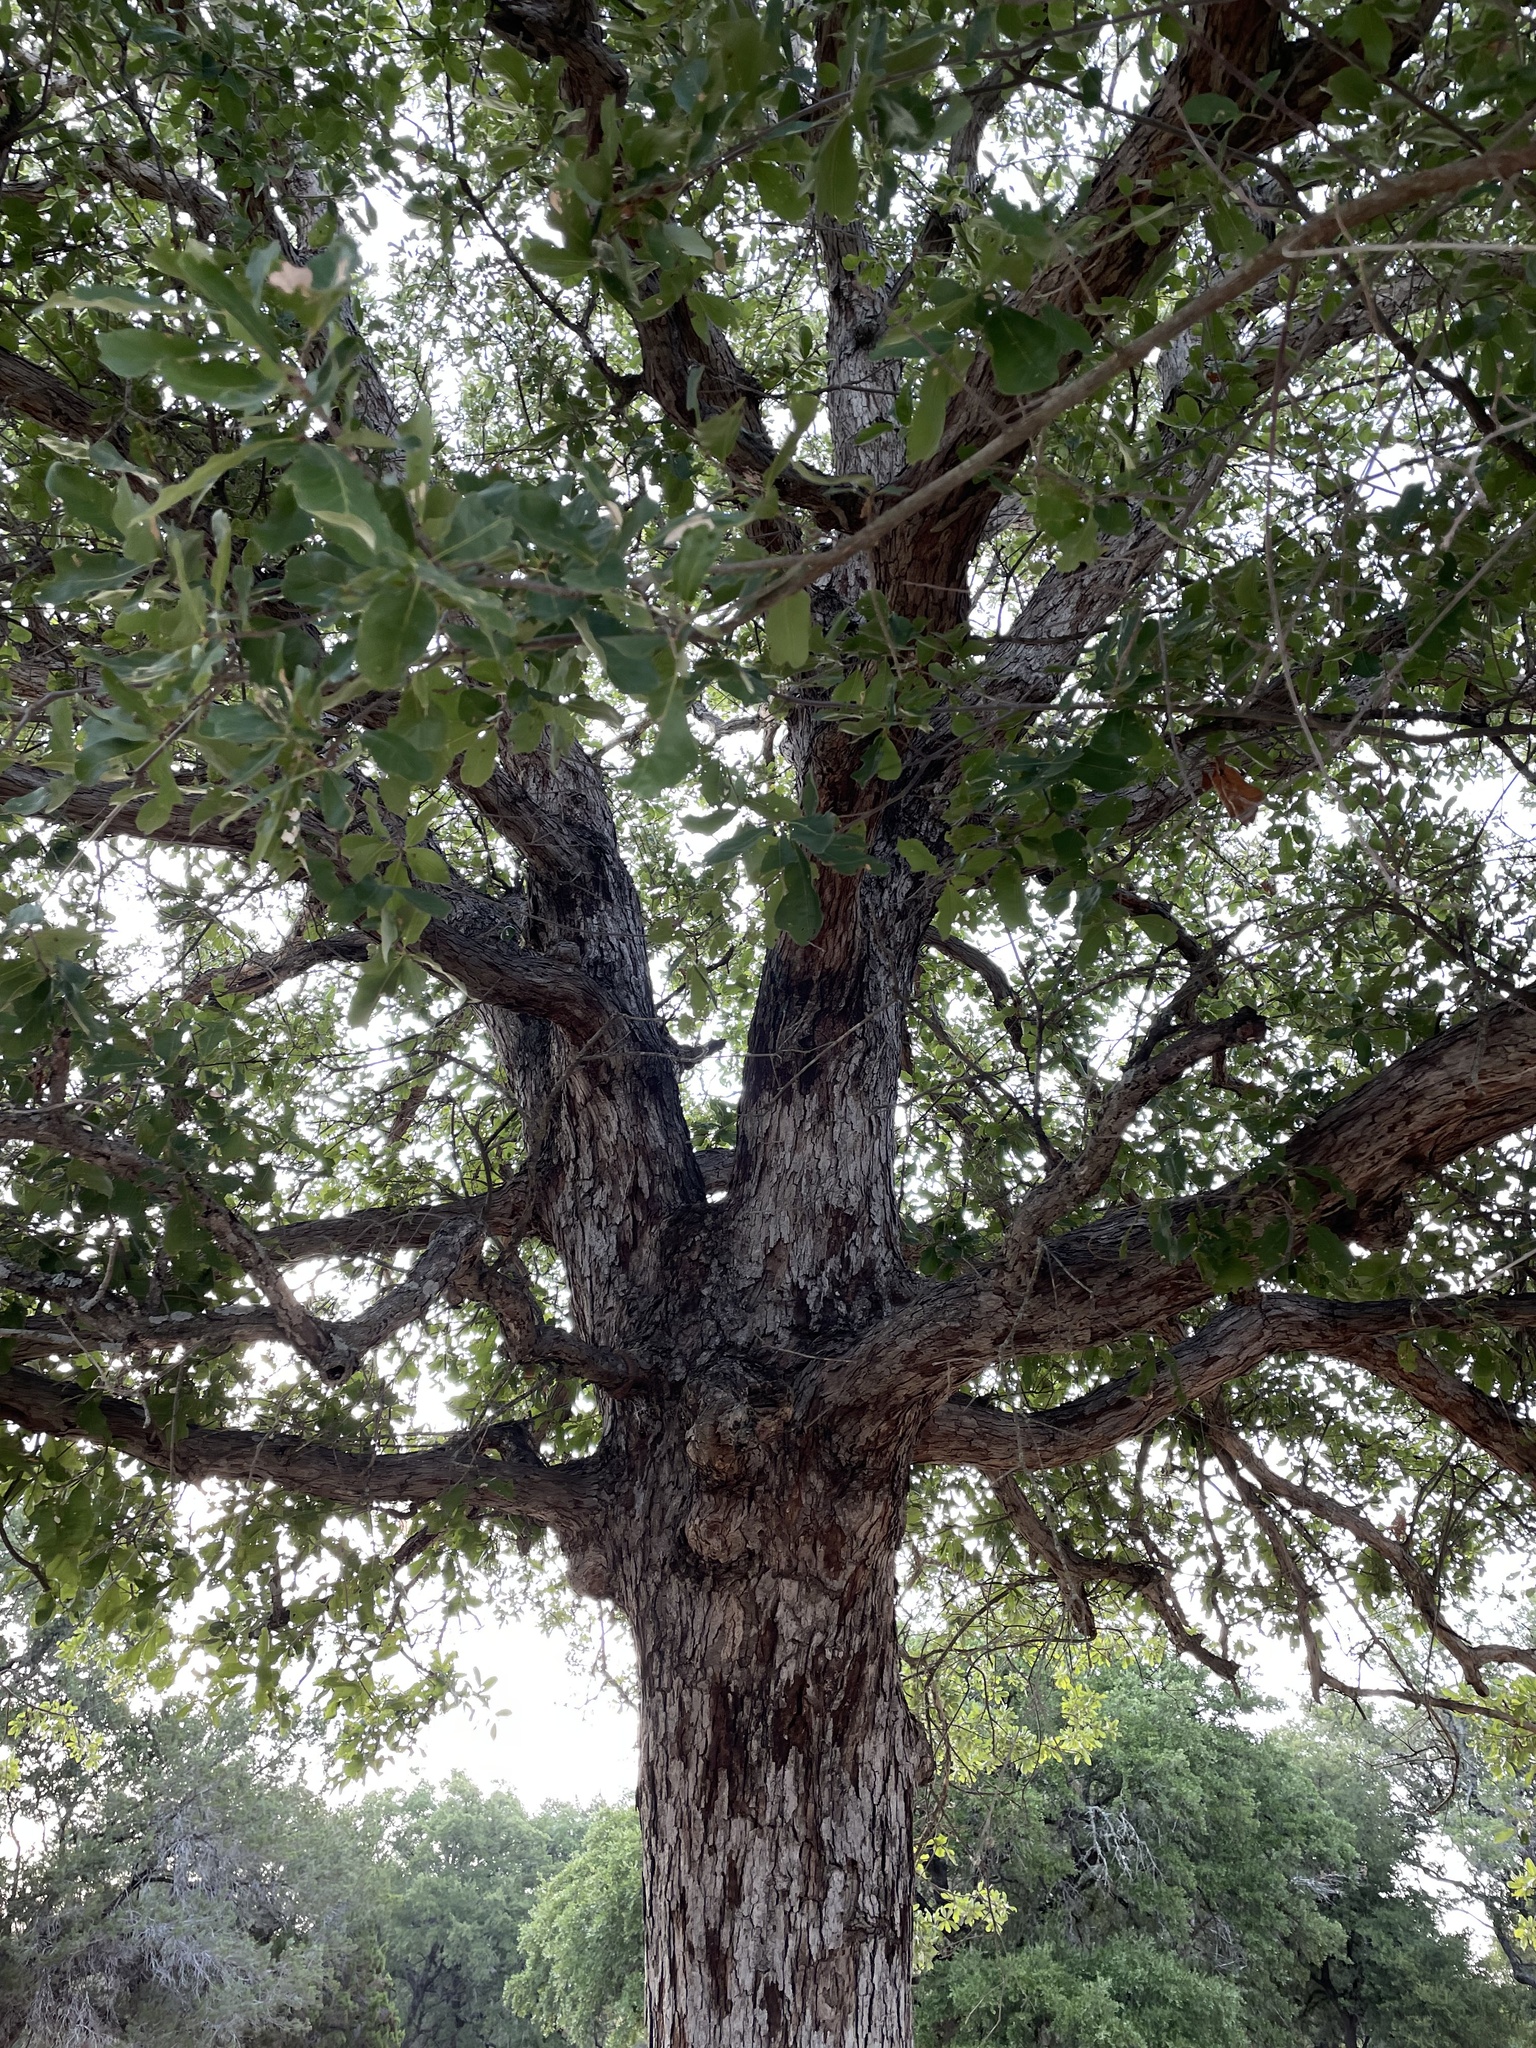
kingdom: Plantae
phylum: Tracheophyta
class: Magnoliopsida
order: Fagales
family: Fagaceae
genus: Quercus
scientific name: Quercus sinuata
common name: Durand oak
